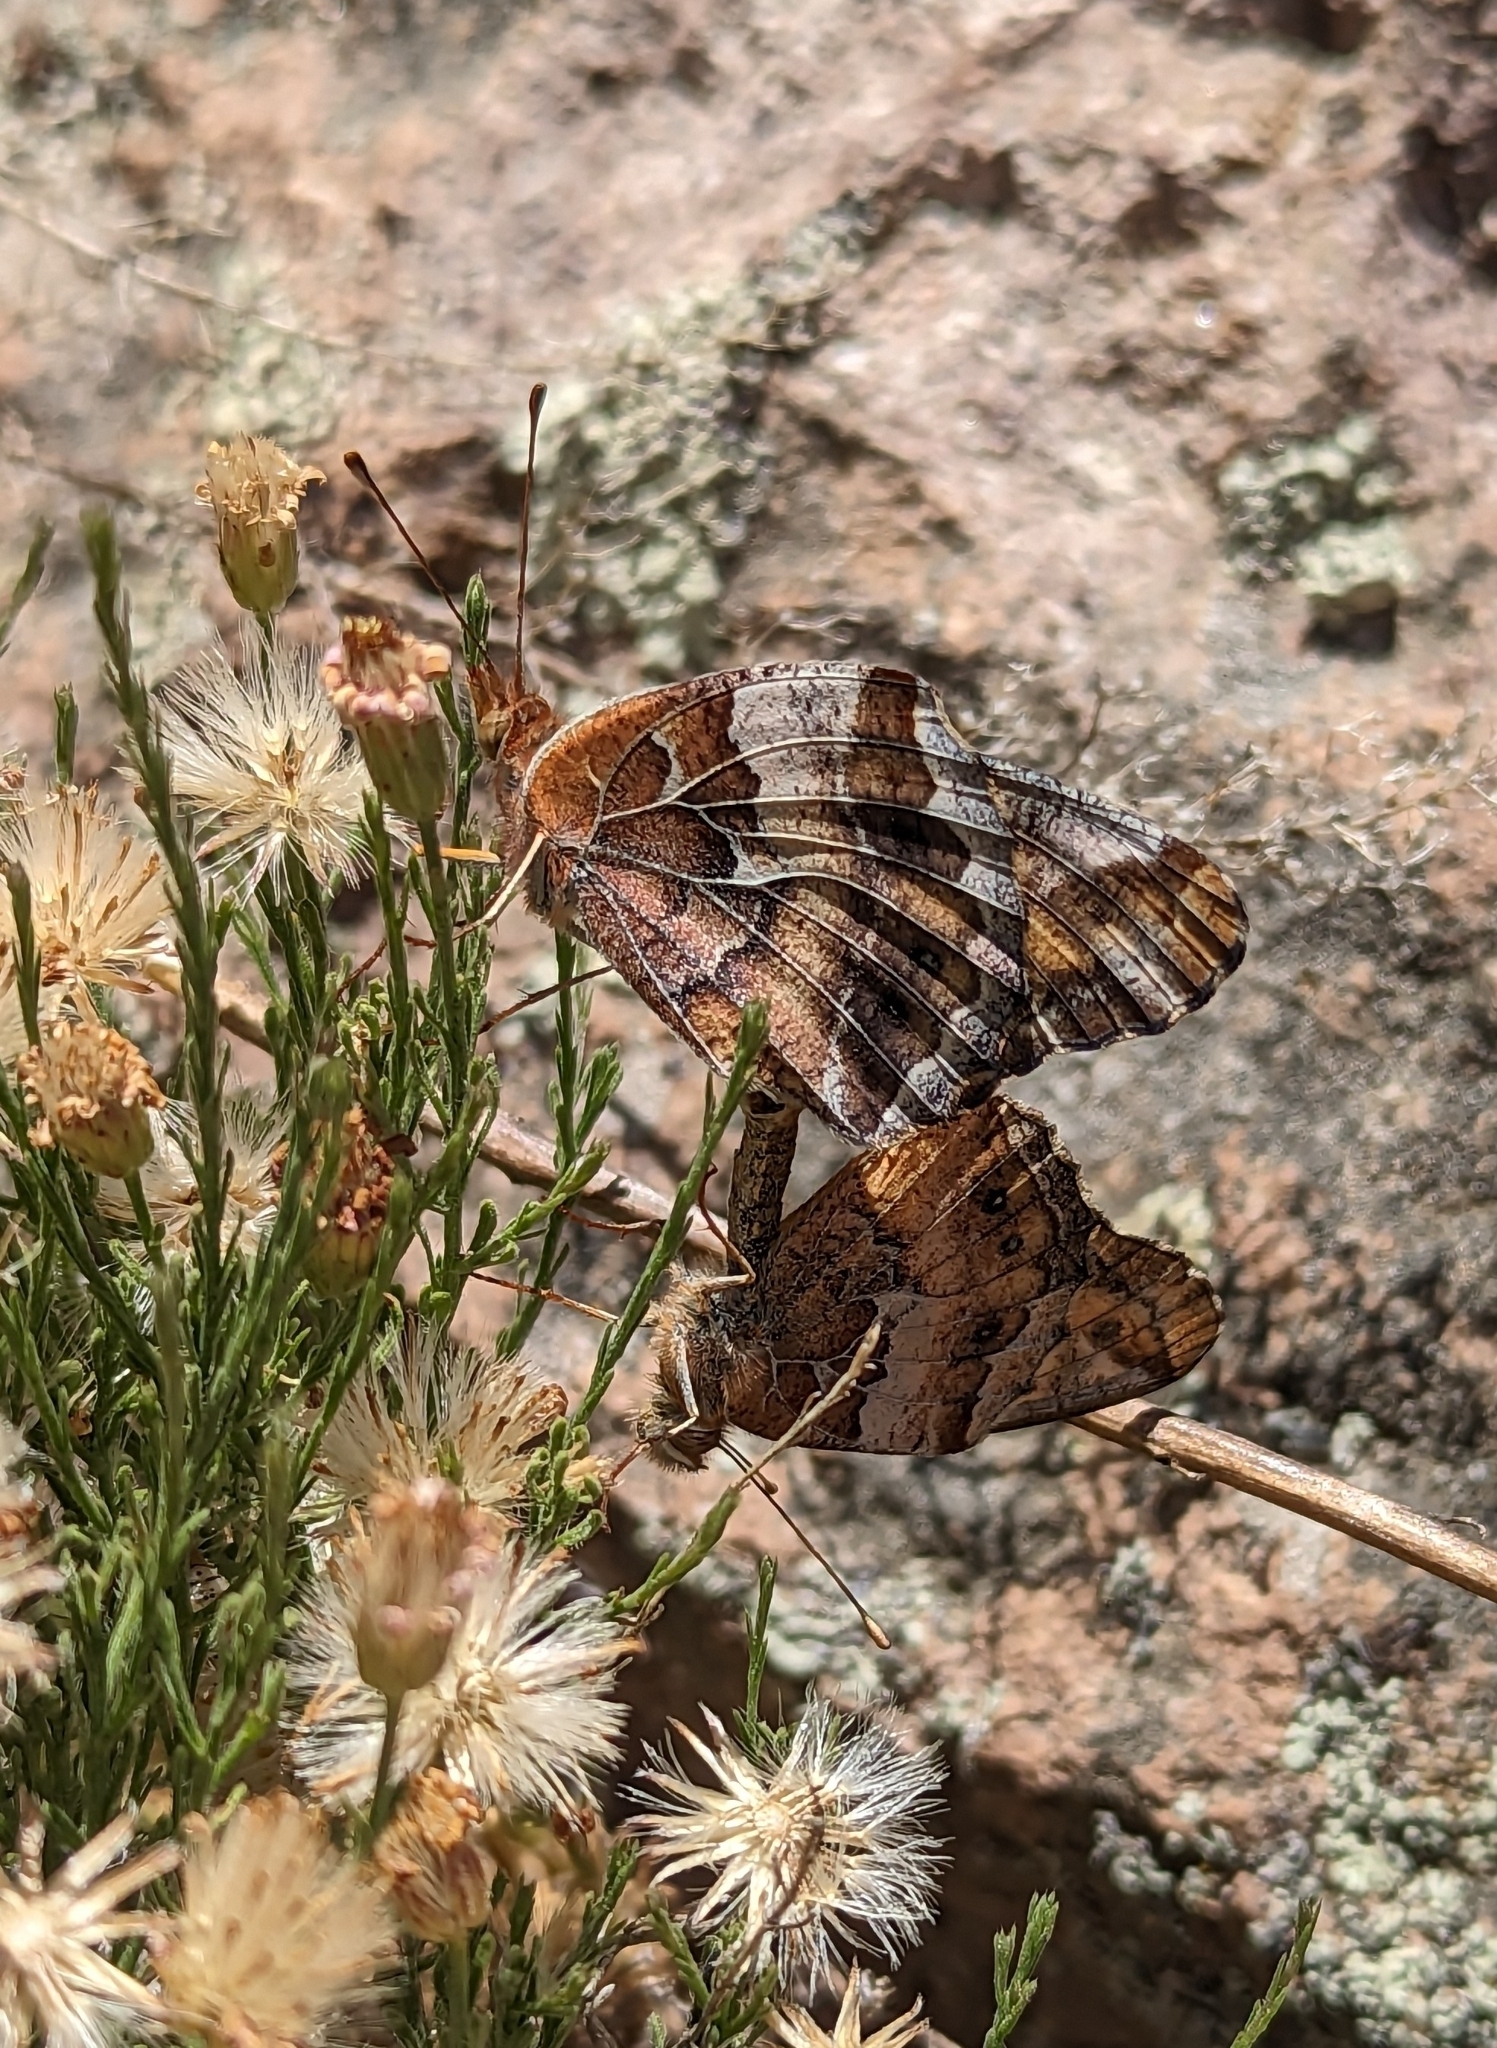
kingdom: Animalia
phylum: Arthropoda
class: Insecta
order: Lepidoptera
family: Nymphalidae
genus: Euptoieta
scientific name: Euptoieta claudia
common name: Variegated fritillary
